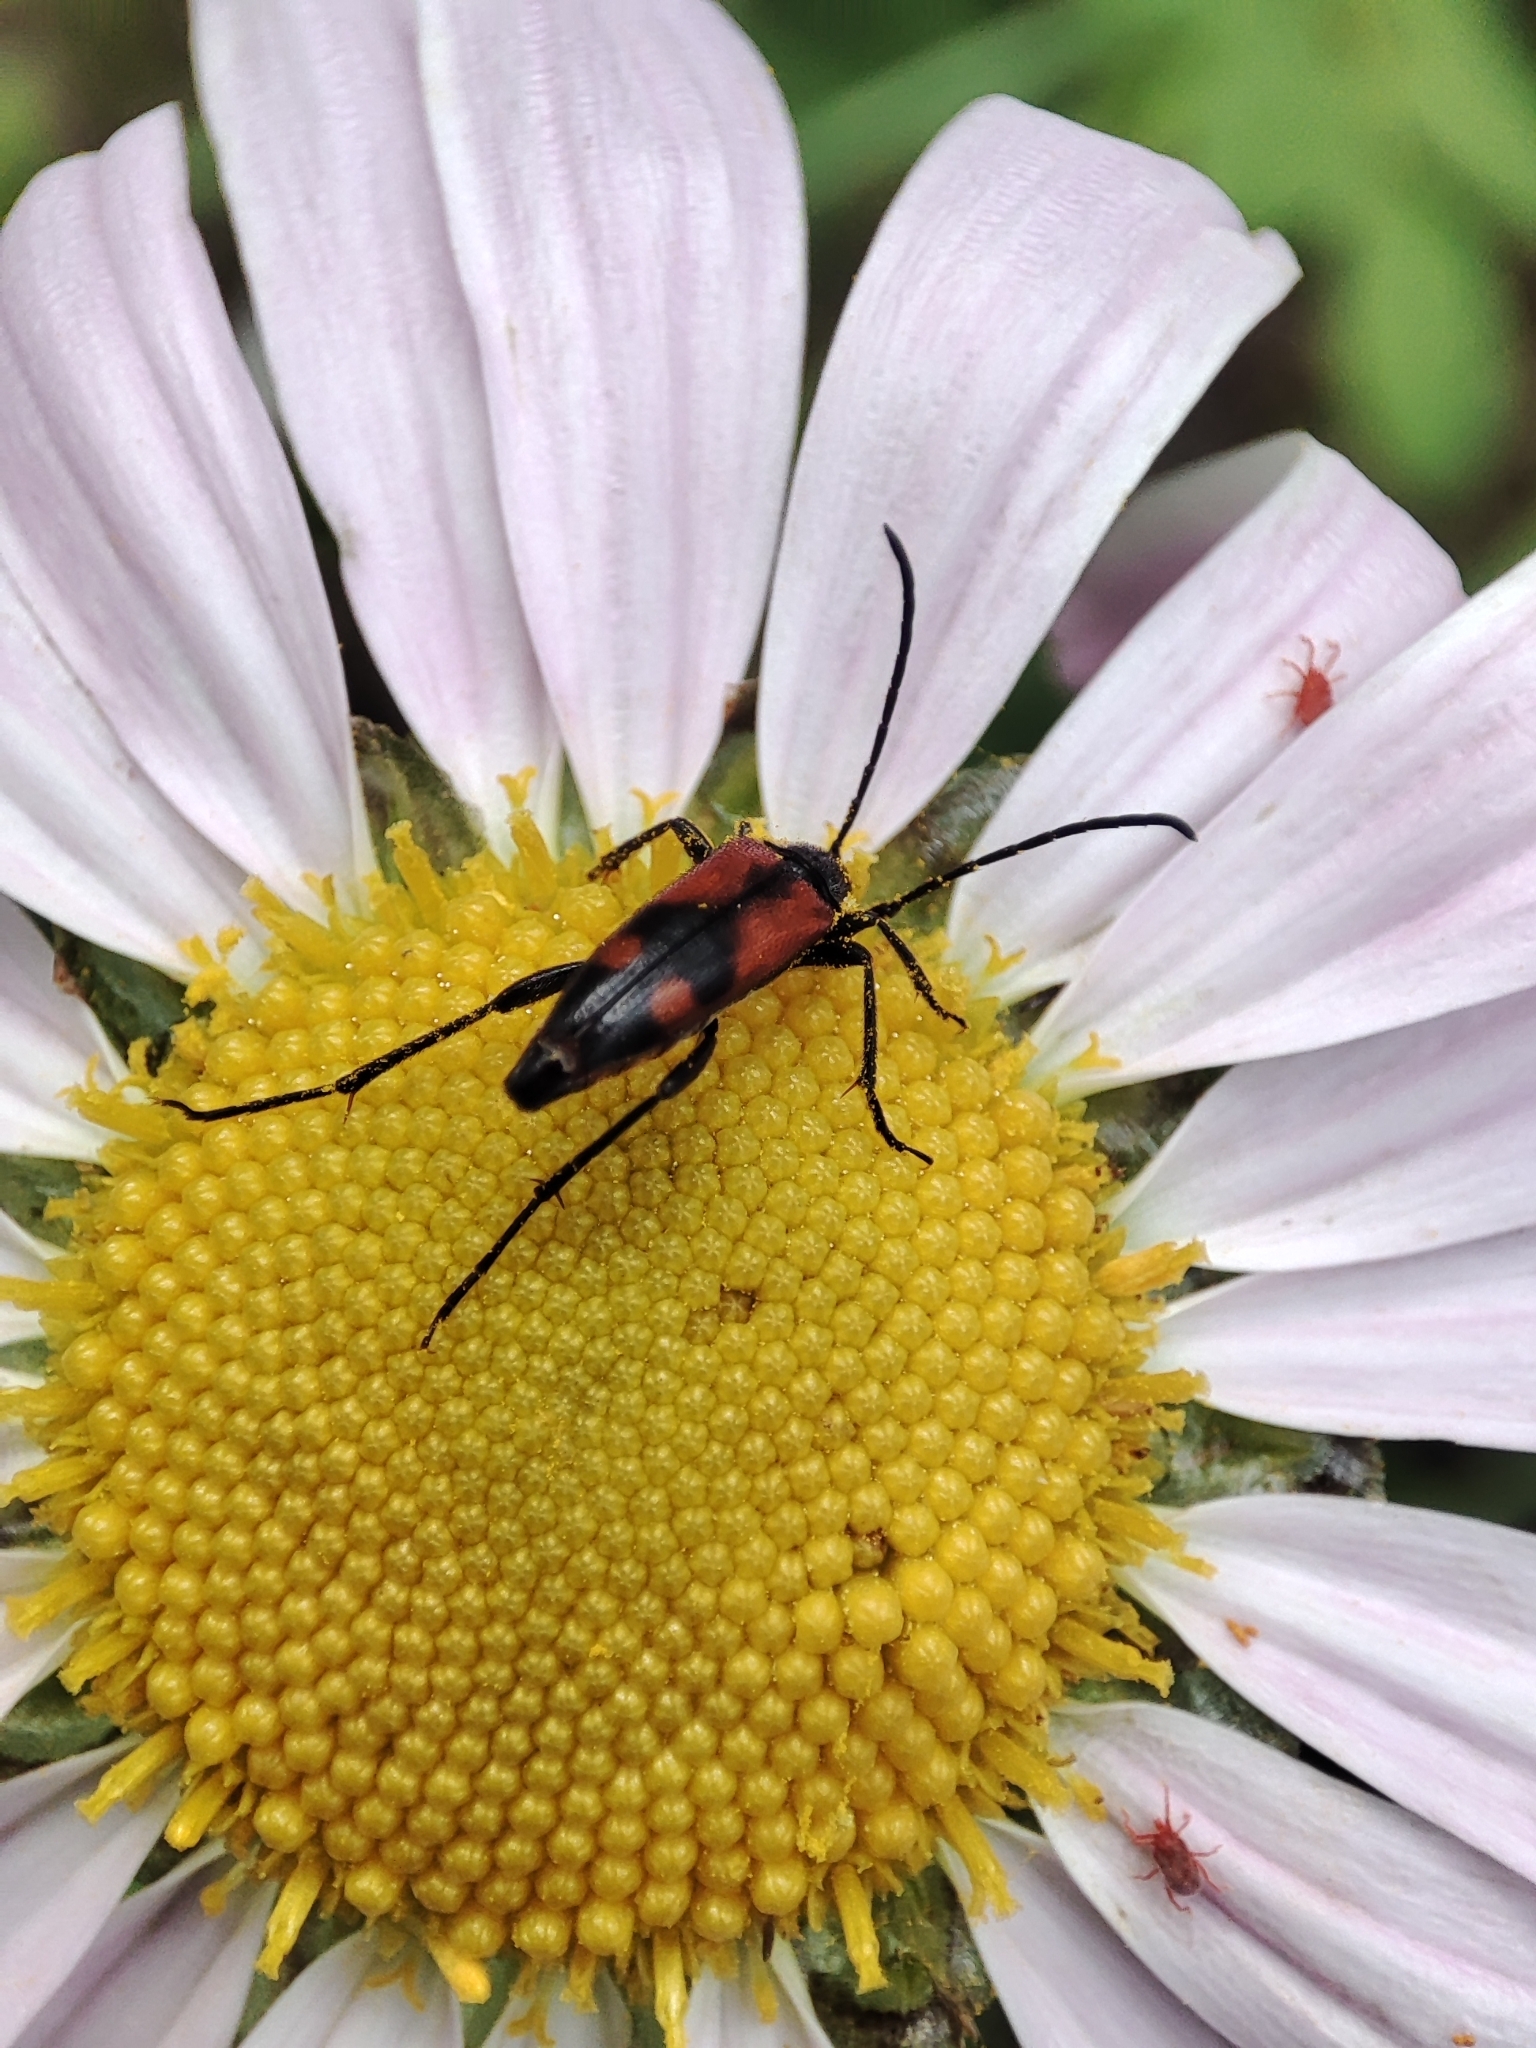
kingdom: Animalia
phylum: Arthropoda
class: Insecta
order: Coleoptera
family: Cerambycidae
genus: Stenurella
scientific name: Stenurella bifasciata
